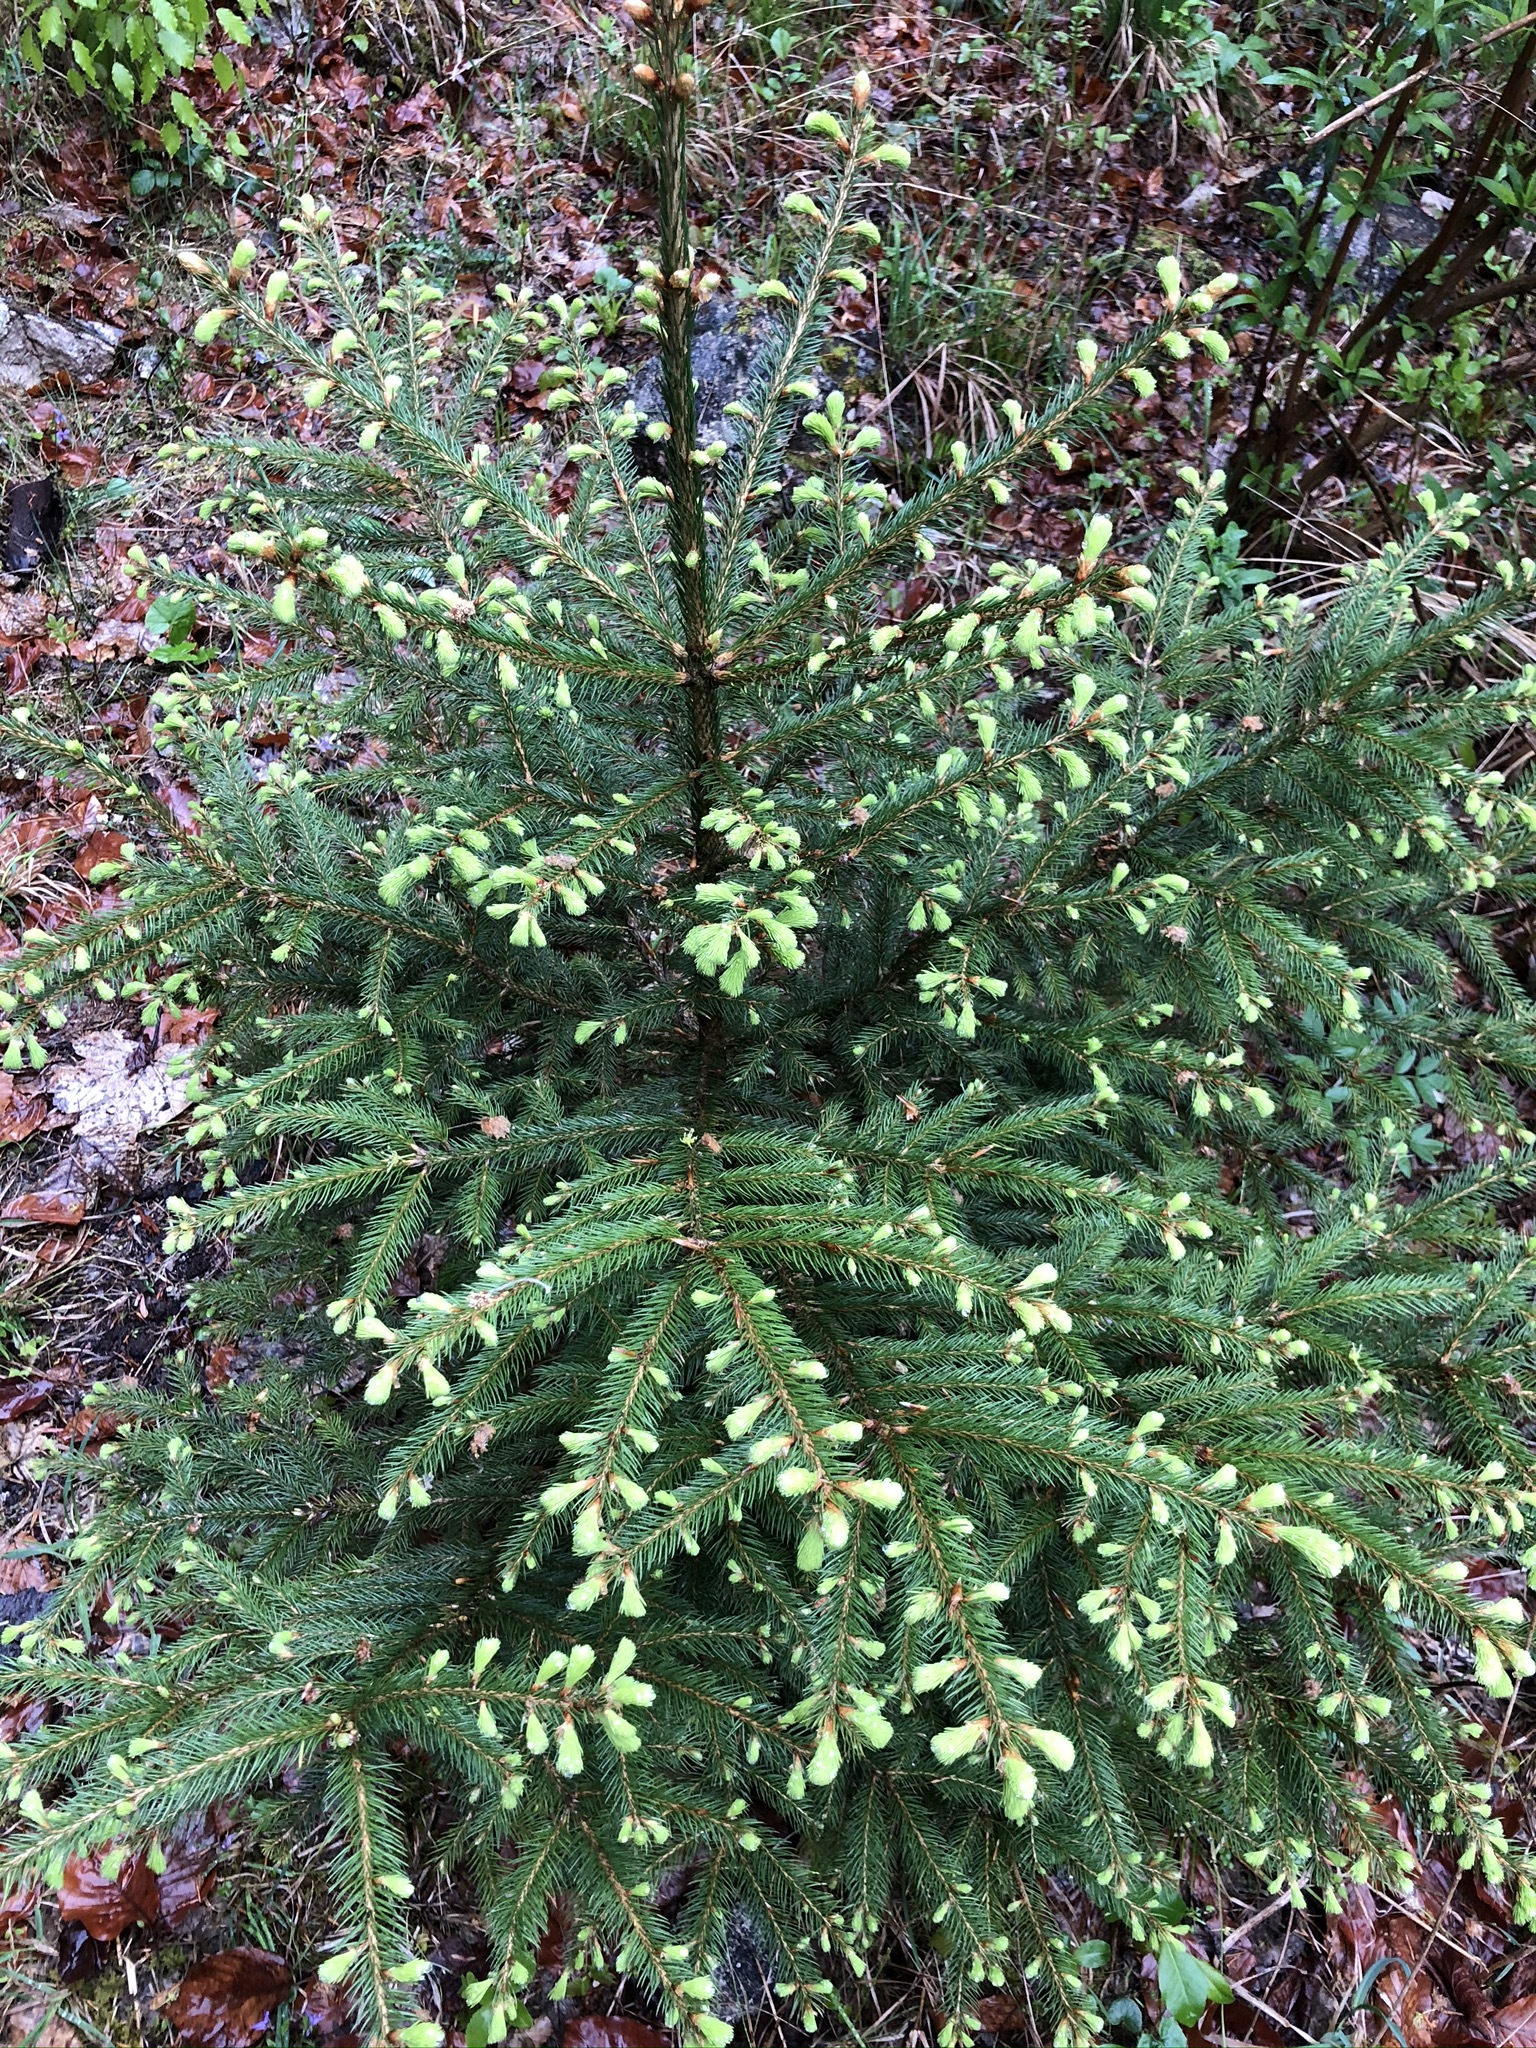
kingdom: Plantae
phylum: Tracheophyta
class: Pinopsida
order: Pinales
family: Pinaceae
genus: Picea
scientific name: Picea abies
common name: Norway spruce
